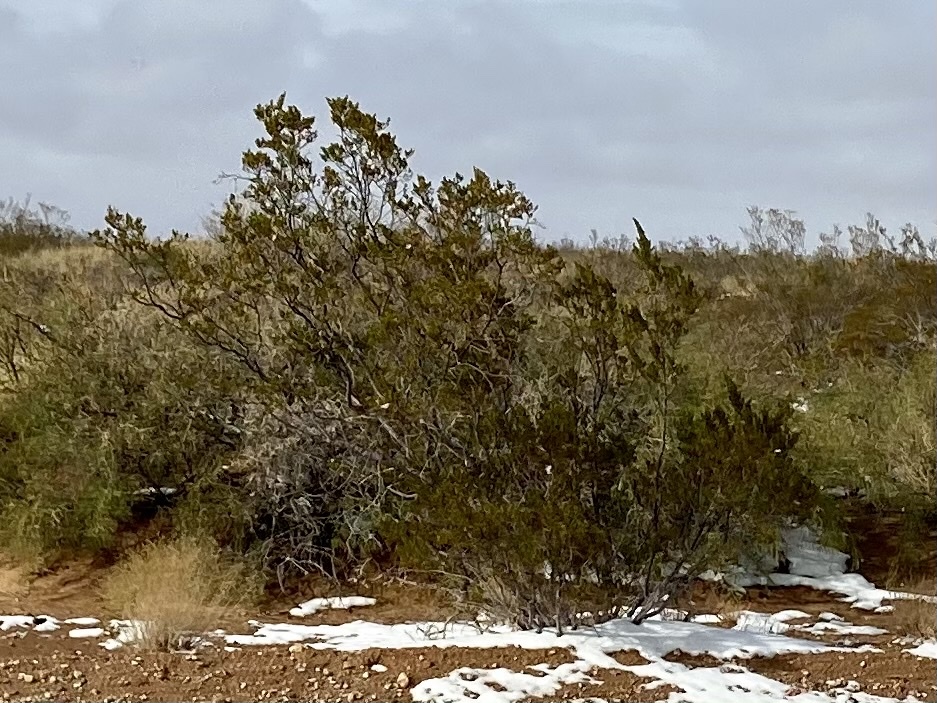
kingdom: Plantae
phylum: Tracheophyta
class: Magnoliopsida
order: Zygophyllales
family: Zygophyllaceae
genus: Larrea
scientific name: Larrea tridentata
